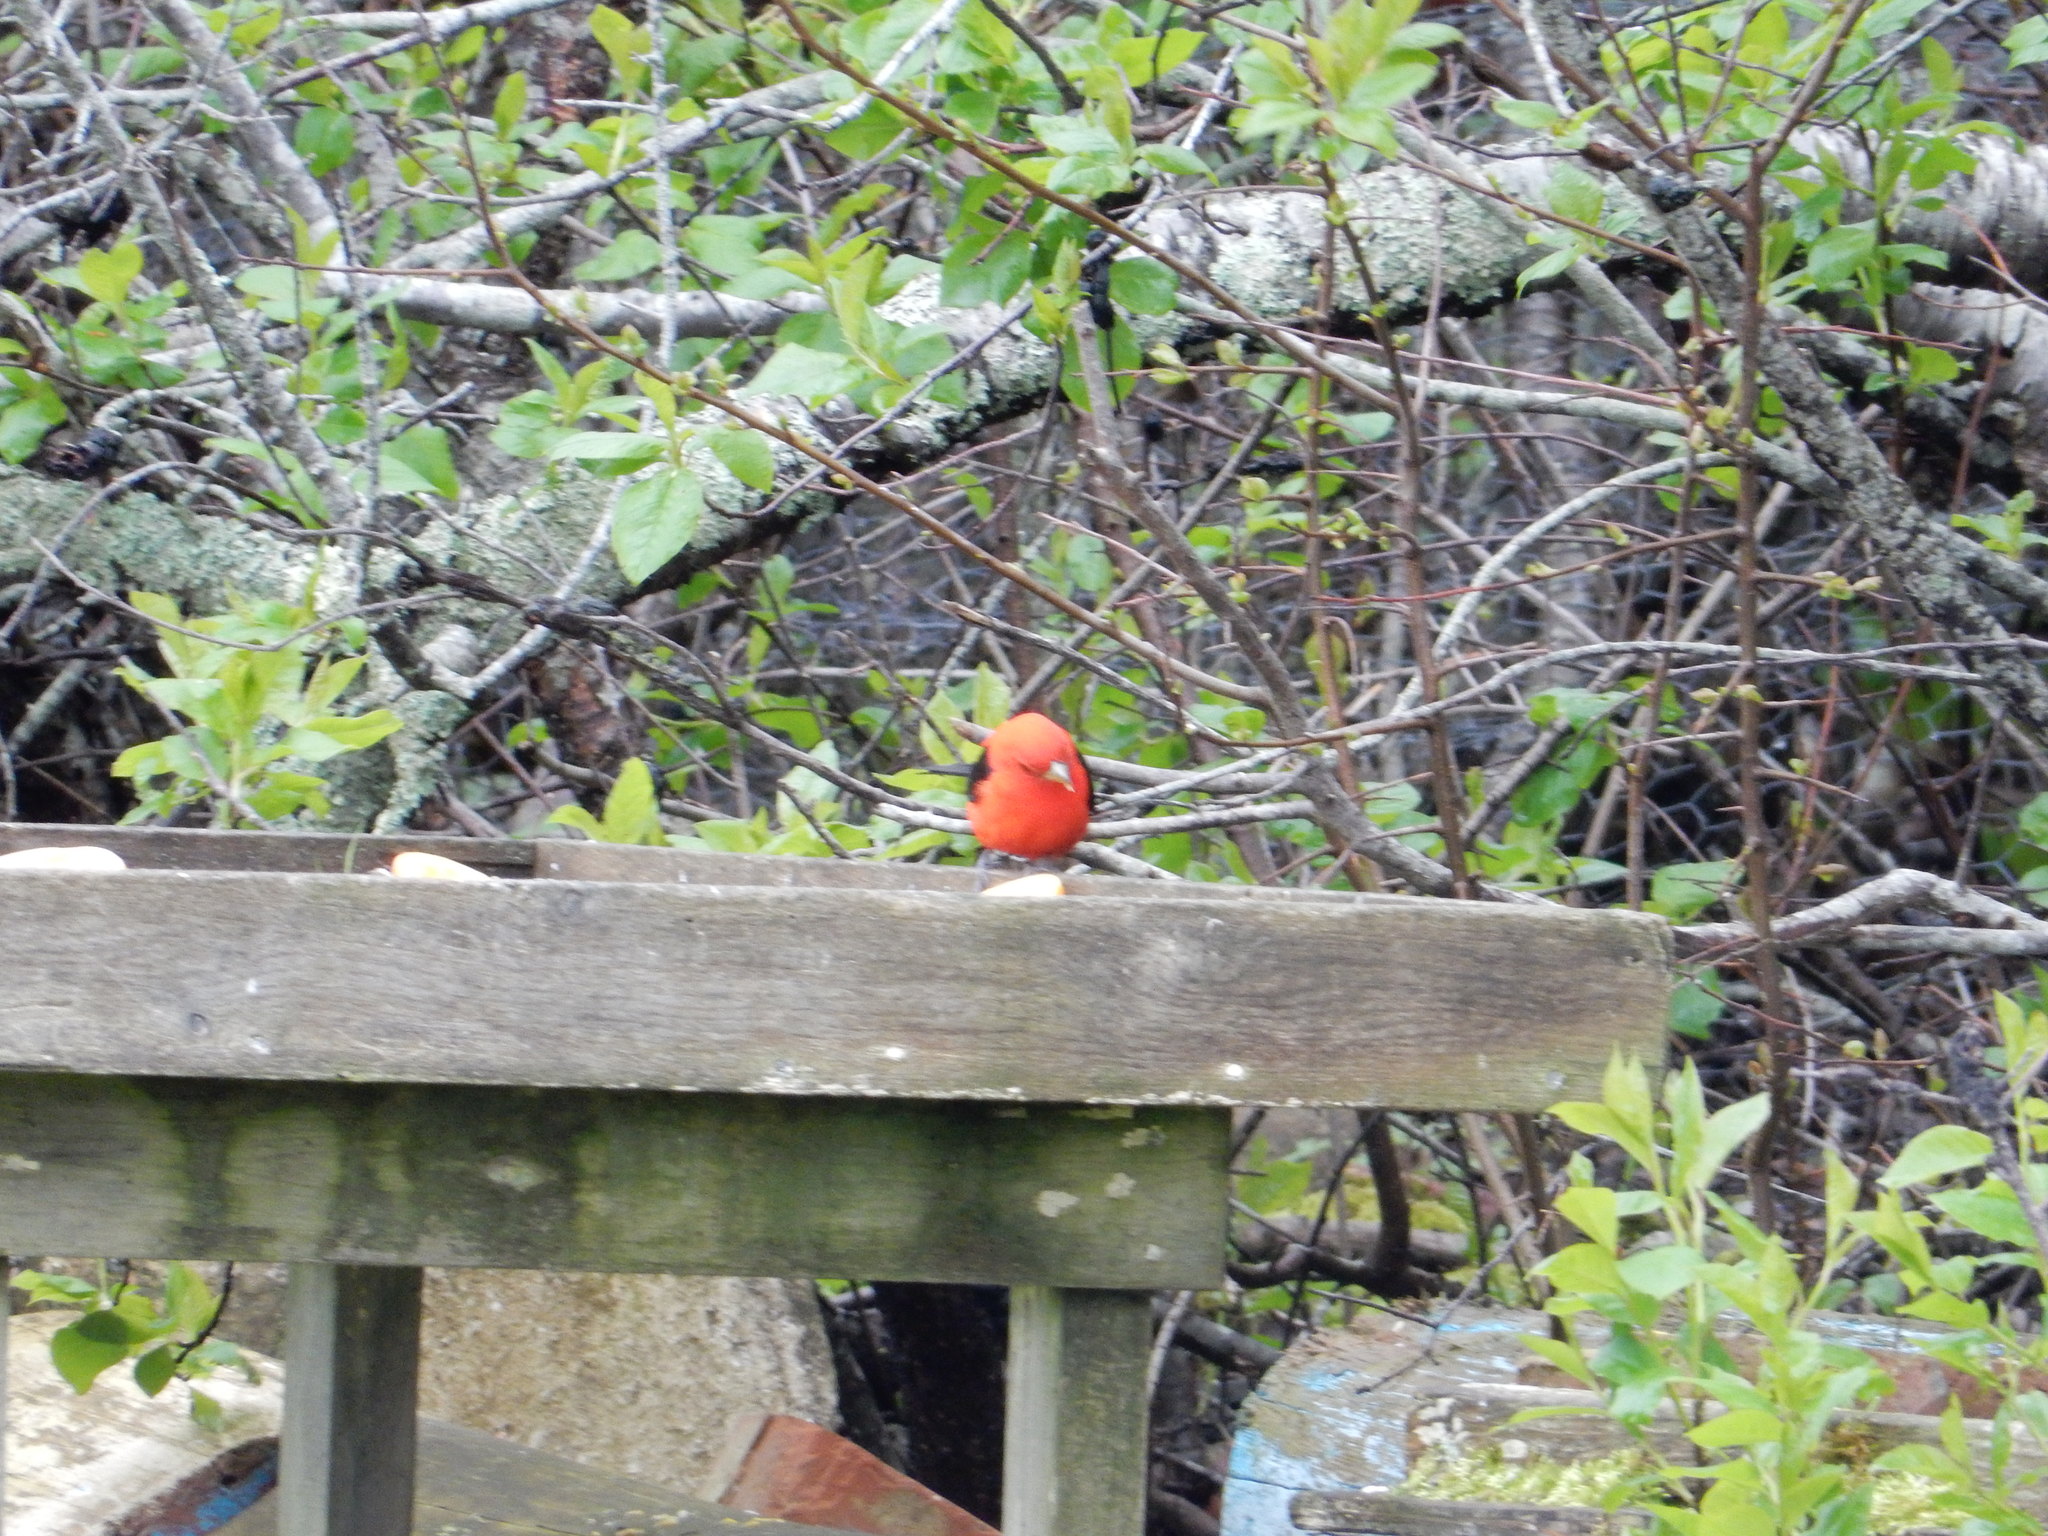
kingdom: Animalia
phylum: Chordata
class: Aves
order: Passeriformes
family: Cardinalidae
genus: Piranga
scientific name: Piranga olivacea
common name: Scarlet tanager
